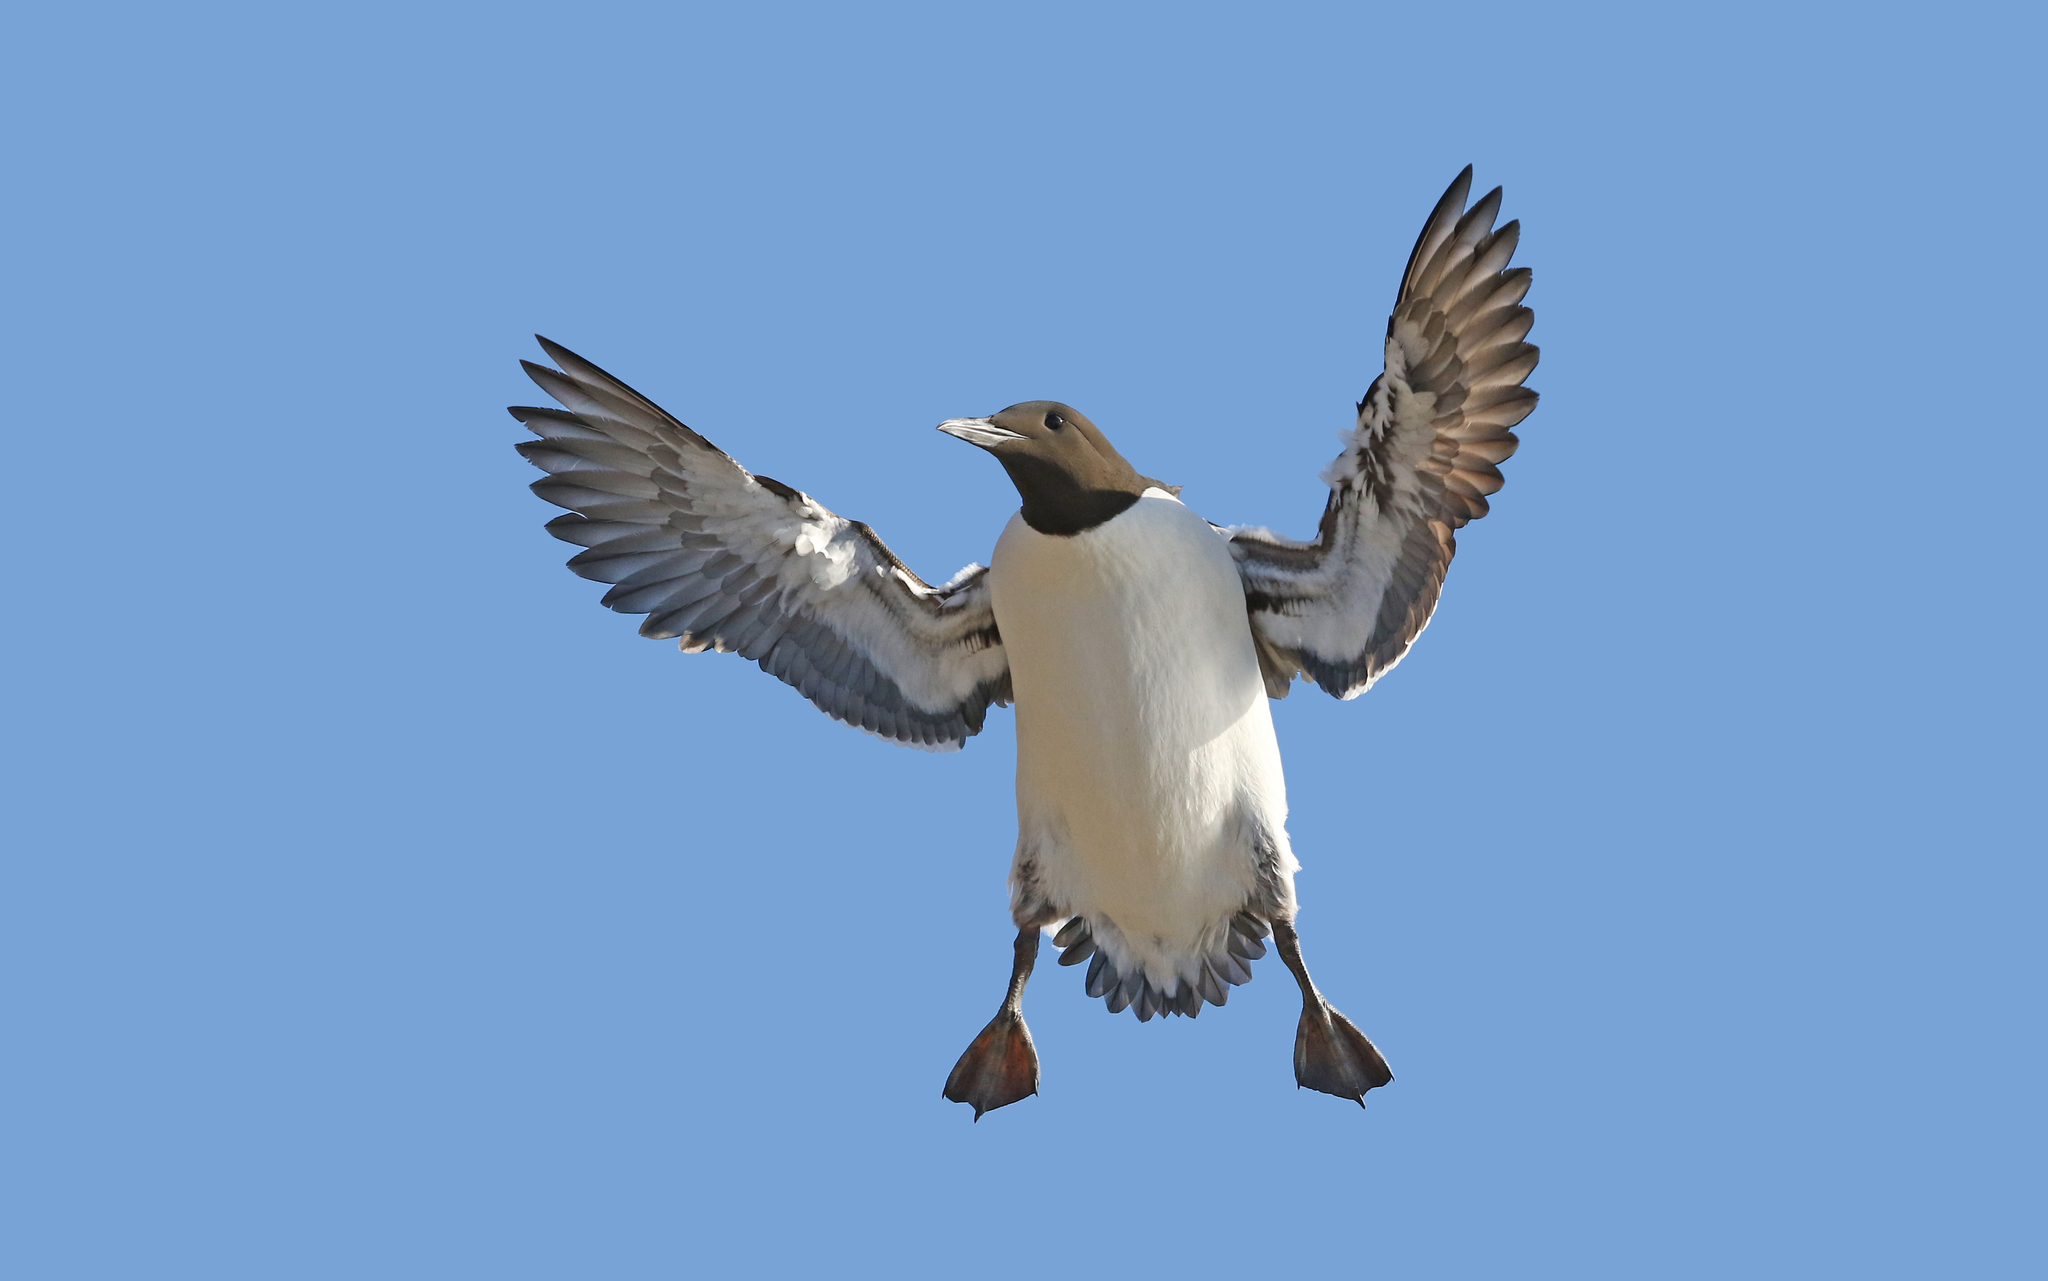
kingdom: Animalia
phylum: Chordata
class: Aves
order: Charadriiformes
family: Alcidae
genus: Uria
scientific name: Uria aalge
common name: Common murre
